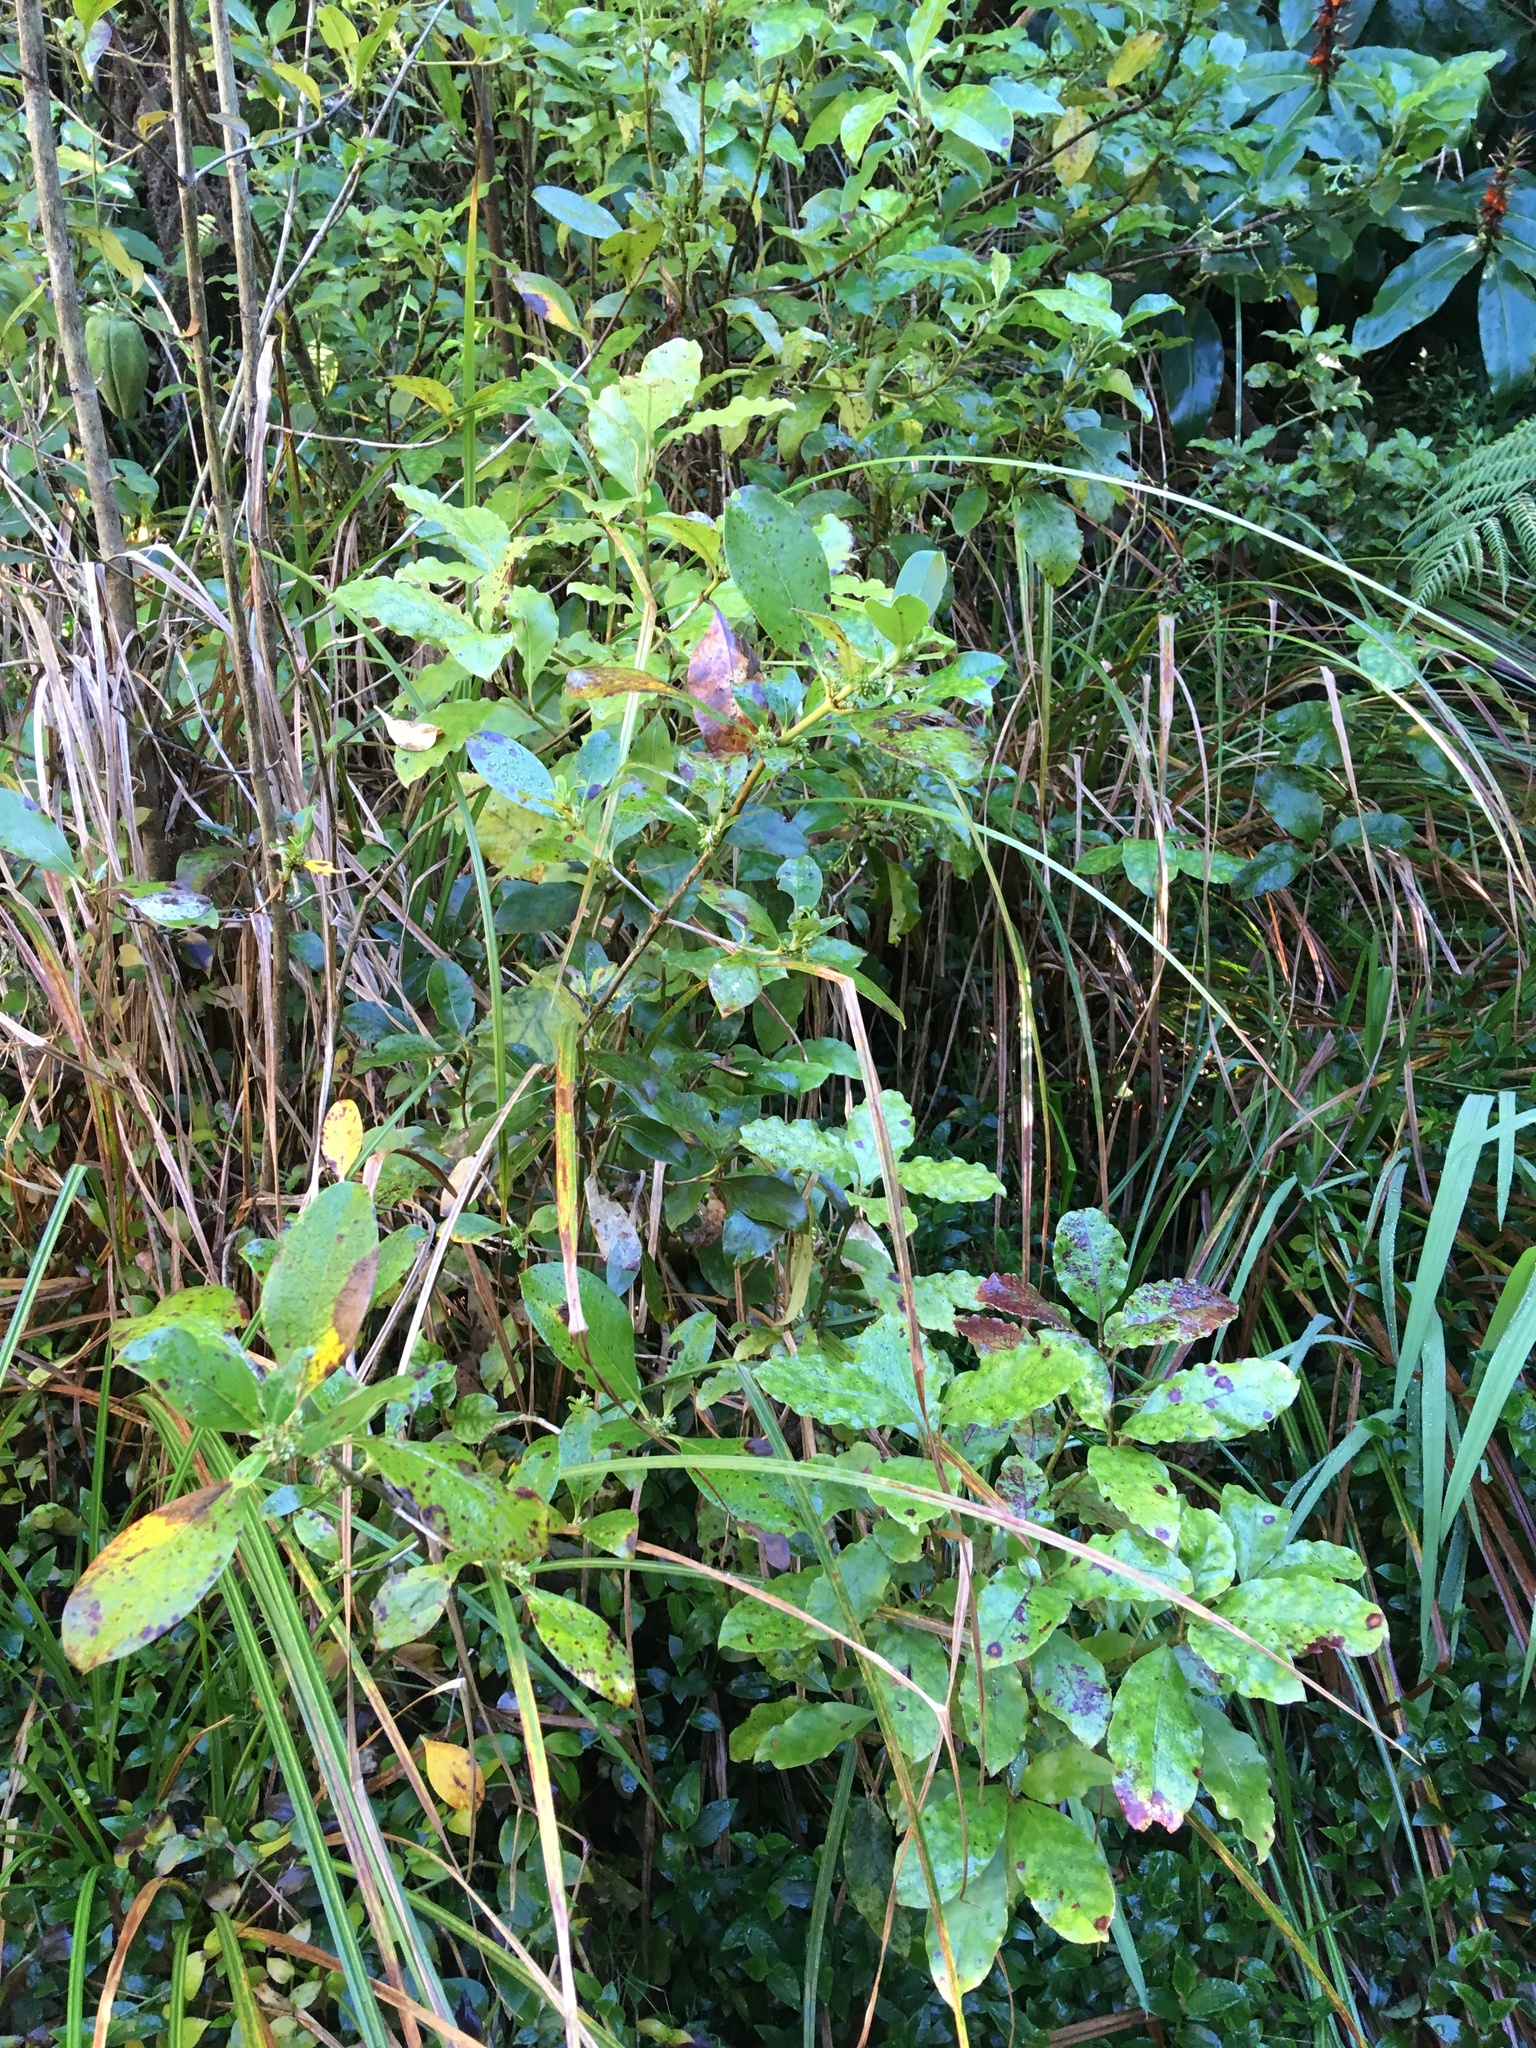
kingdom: Plantae
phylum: Tracheophyta
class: Magnoliopsida
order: Gentianales
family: Rubiaceae
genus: Coprosma
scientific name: Coprosma autumnalis
